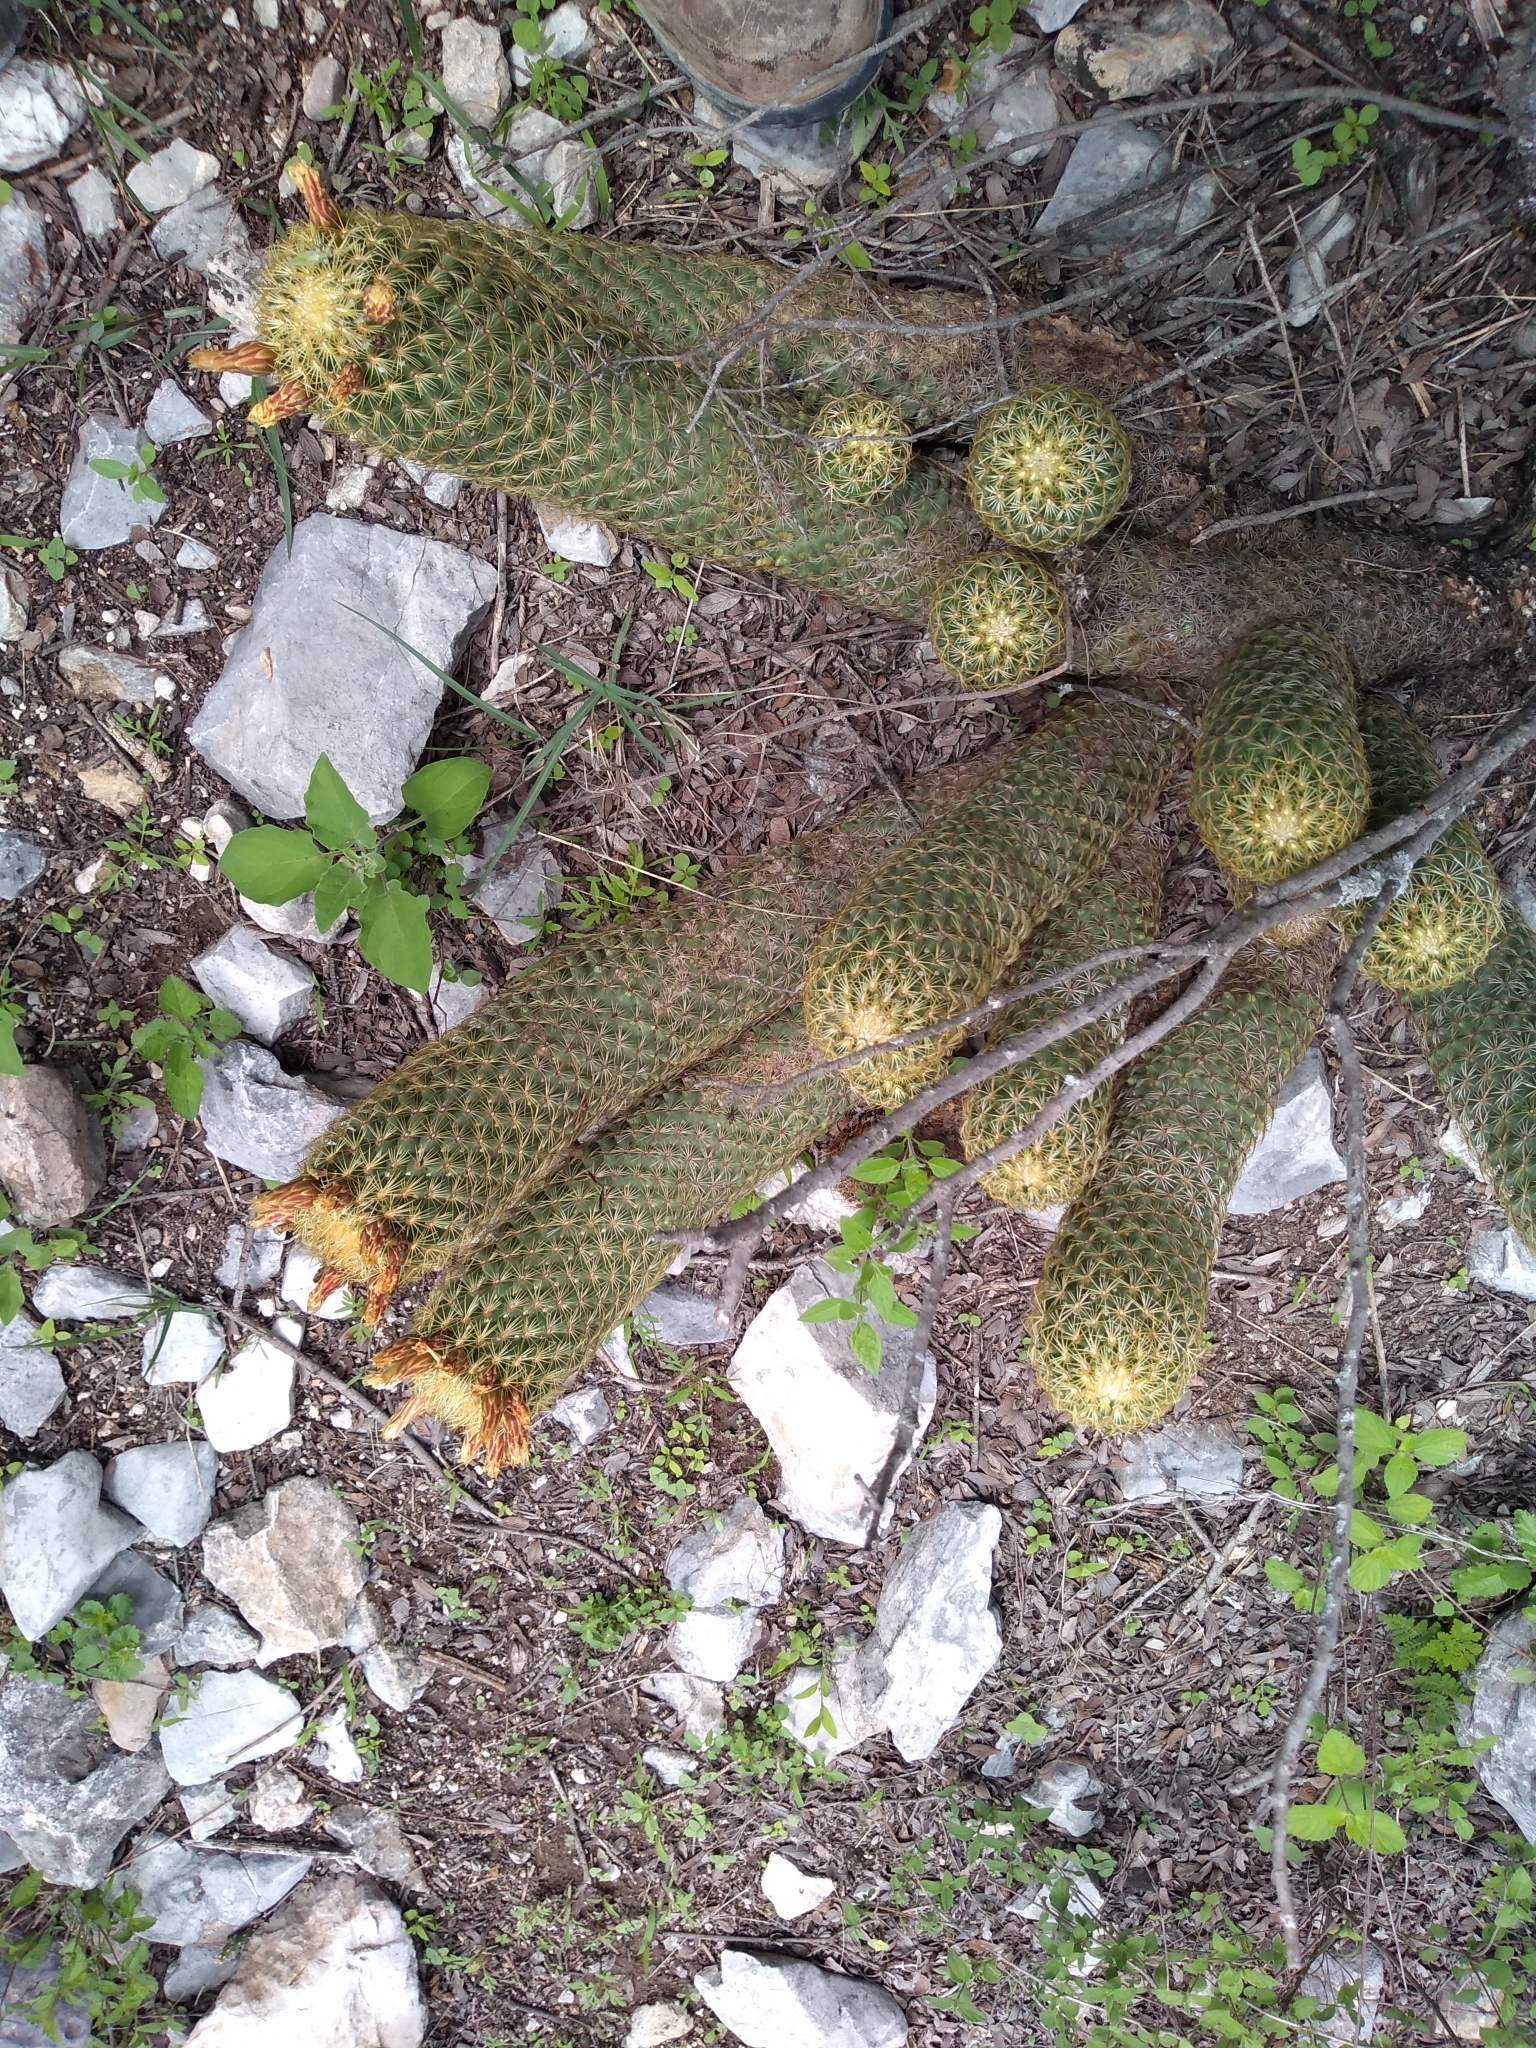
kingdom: Plantae
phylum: Tracheophyta
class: Magnoliopsida
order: Caryophyllales
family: Cactaceae
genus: Coryphantha
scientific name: Coryphantha erecta
